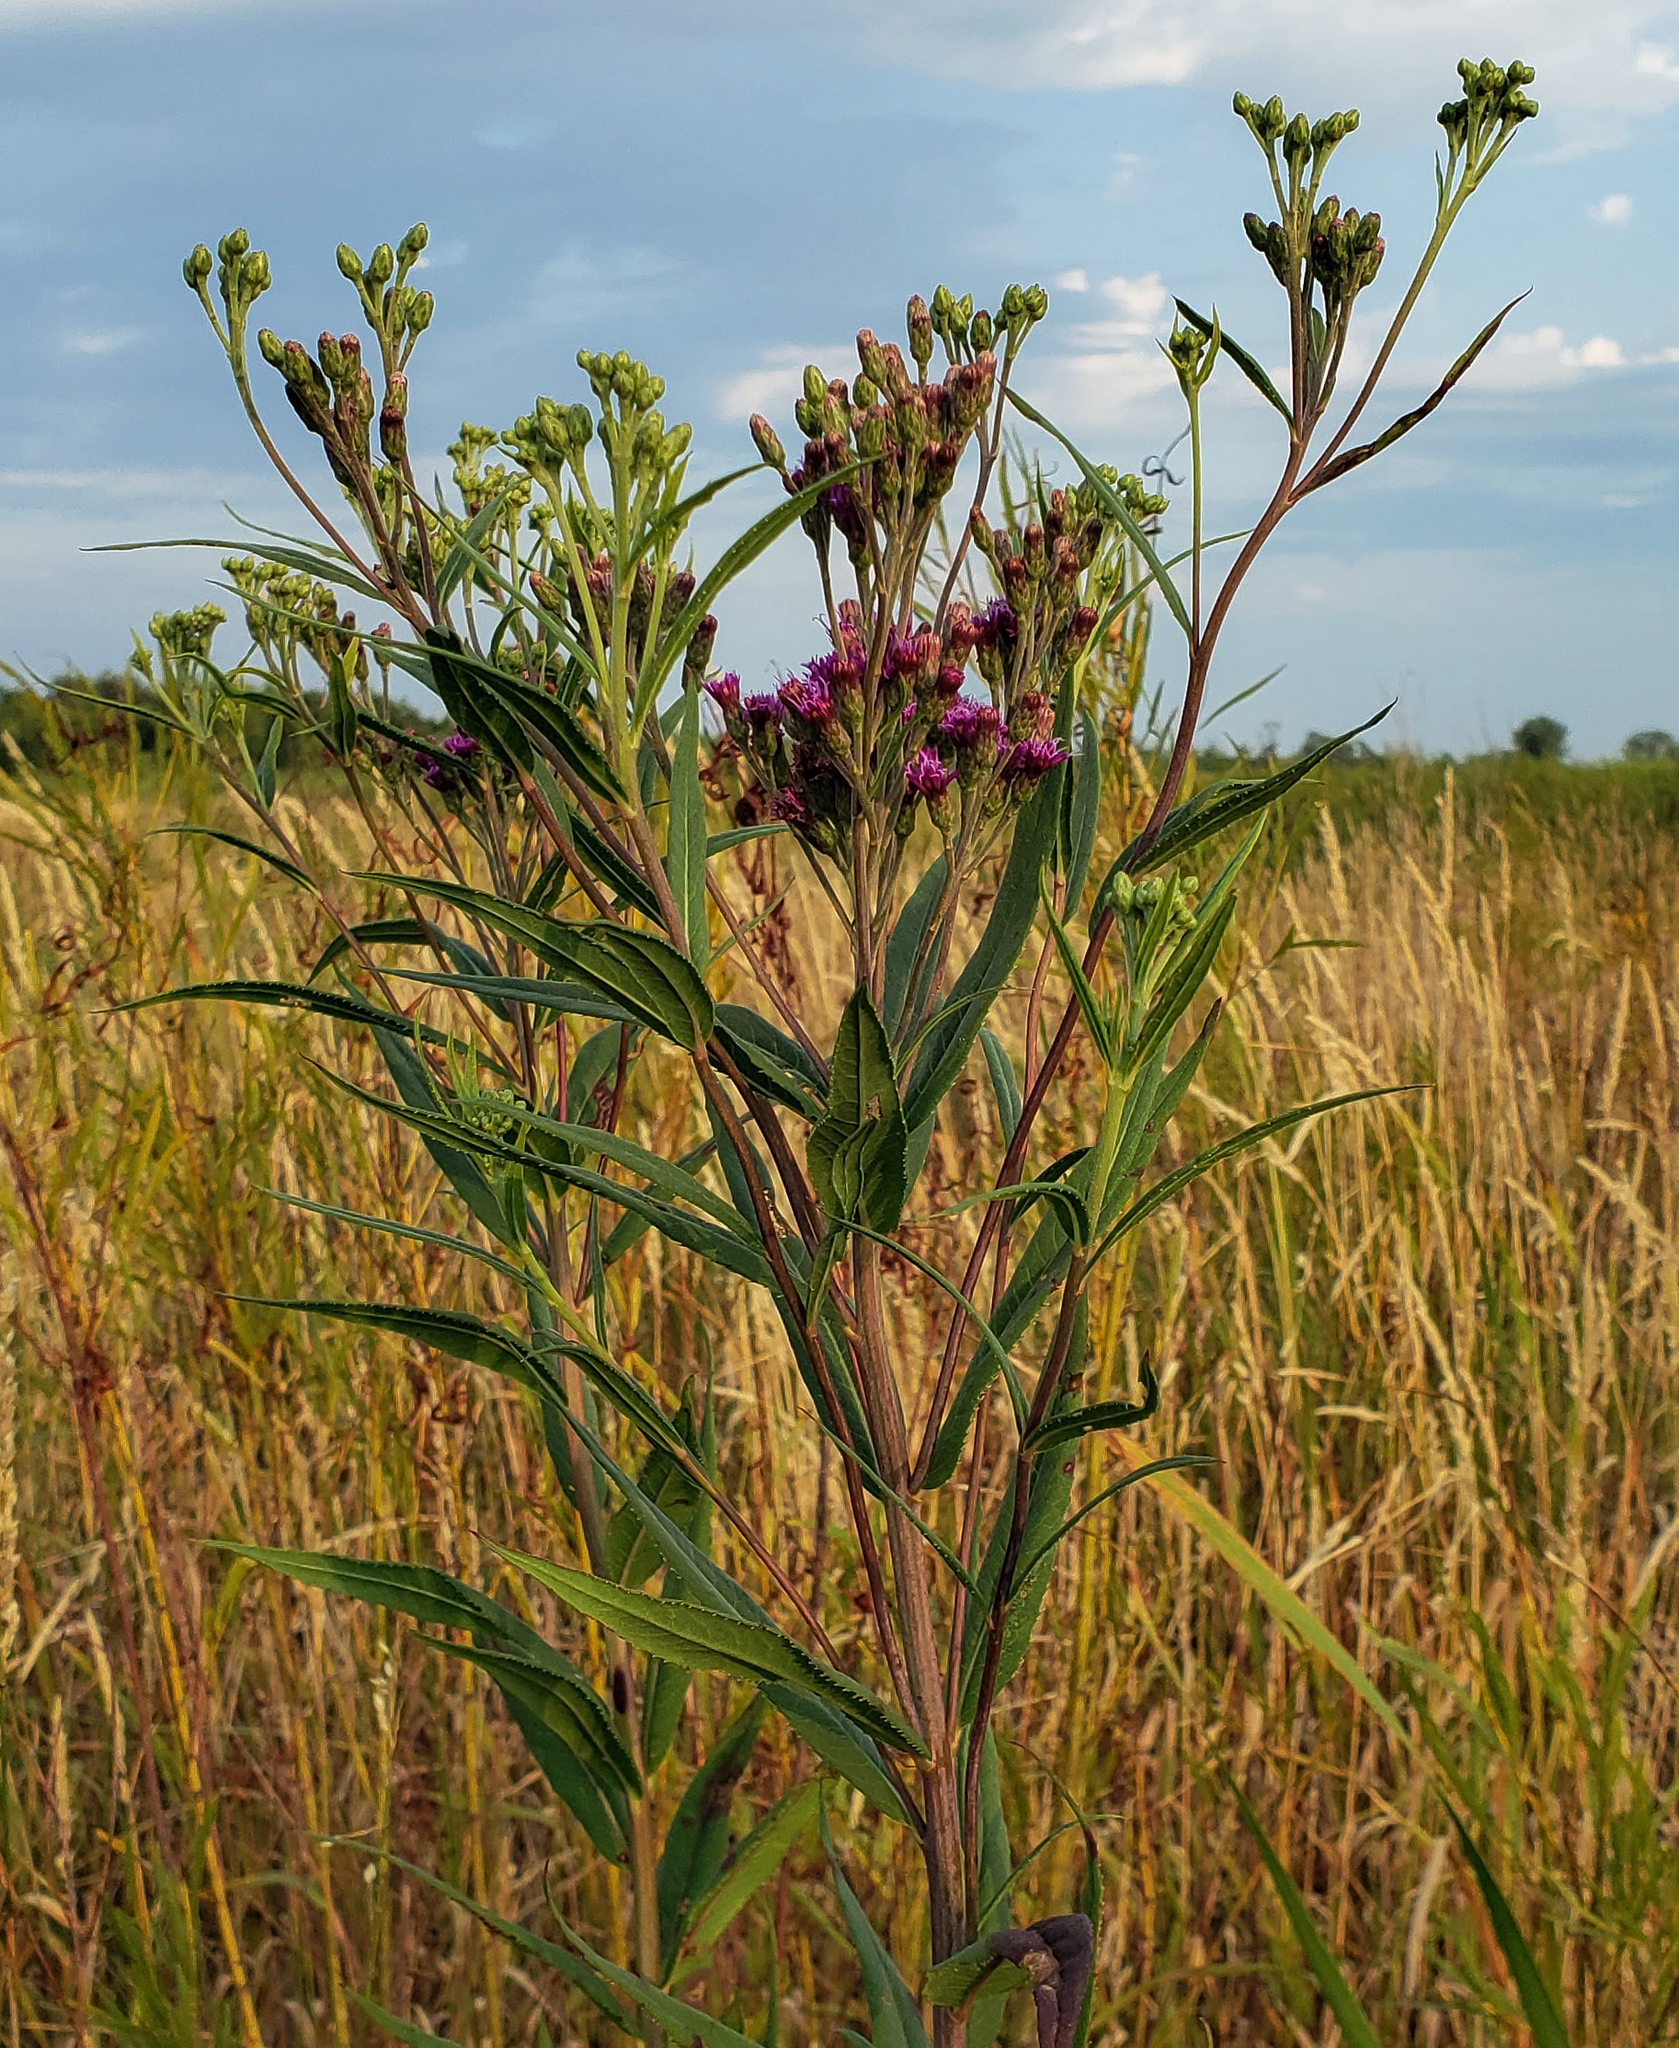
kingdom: Plantae
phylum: Tracheophyta
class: Magnoliopsida
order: Asterales
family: Asteraceae
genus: Vernonia
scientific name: Vernonia fasciculata
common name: Fascicled ironweed
